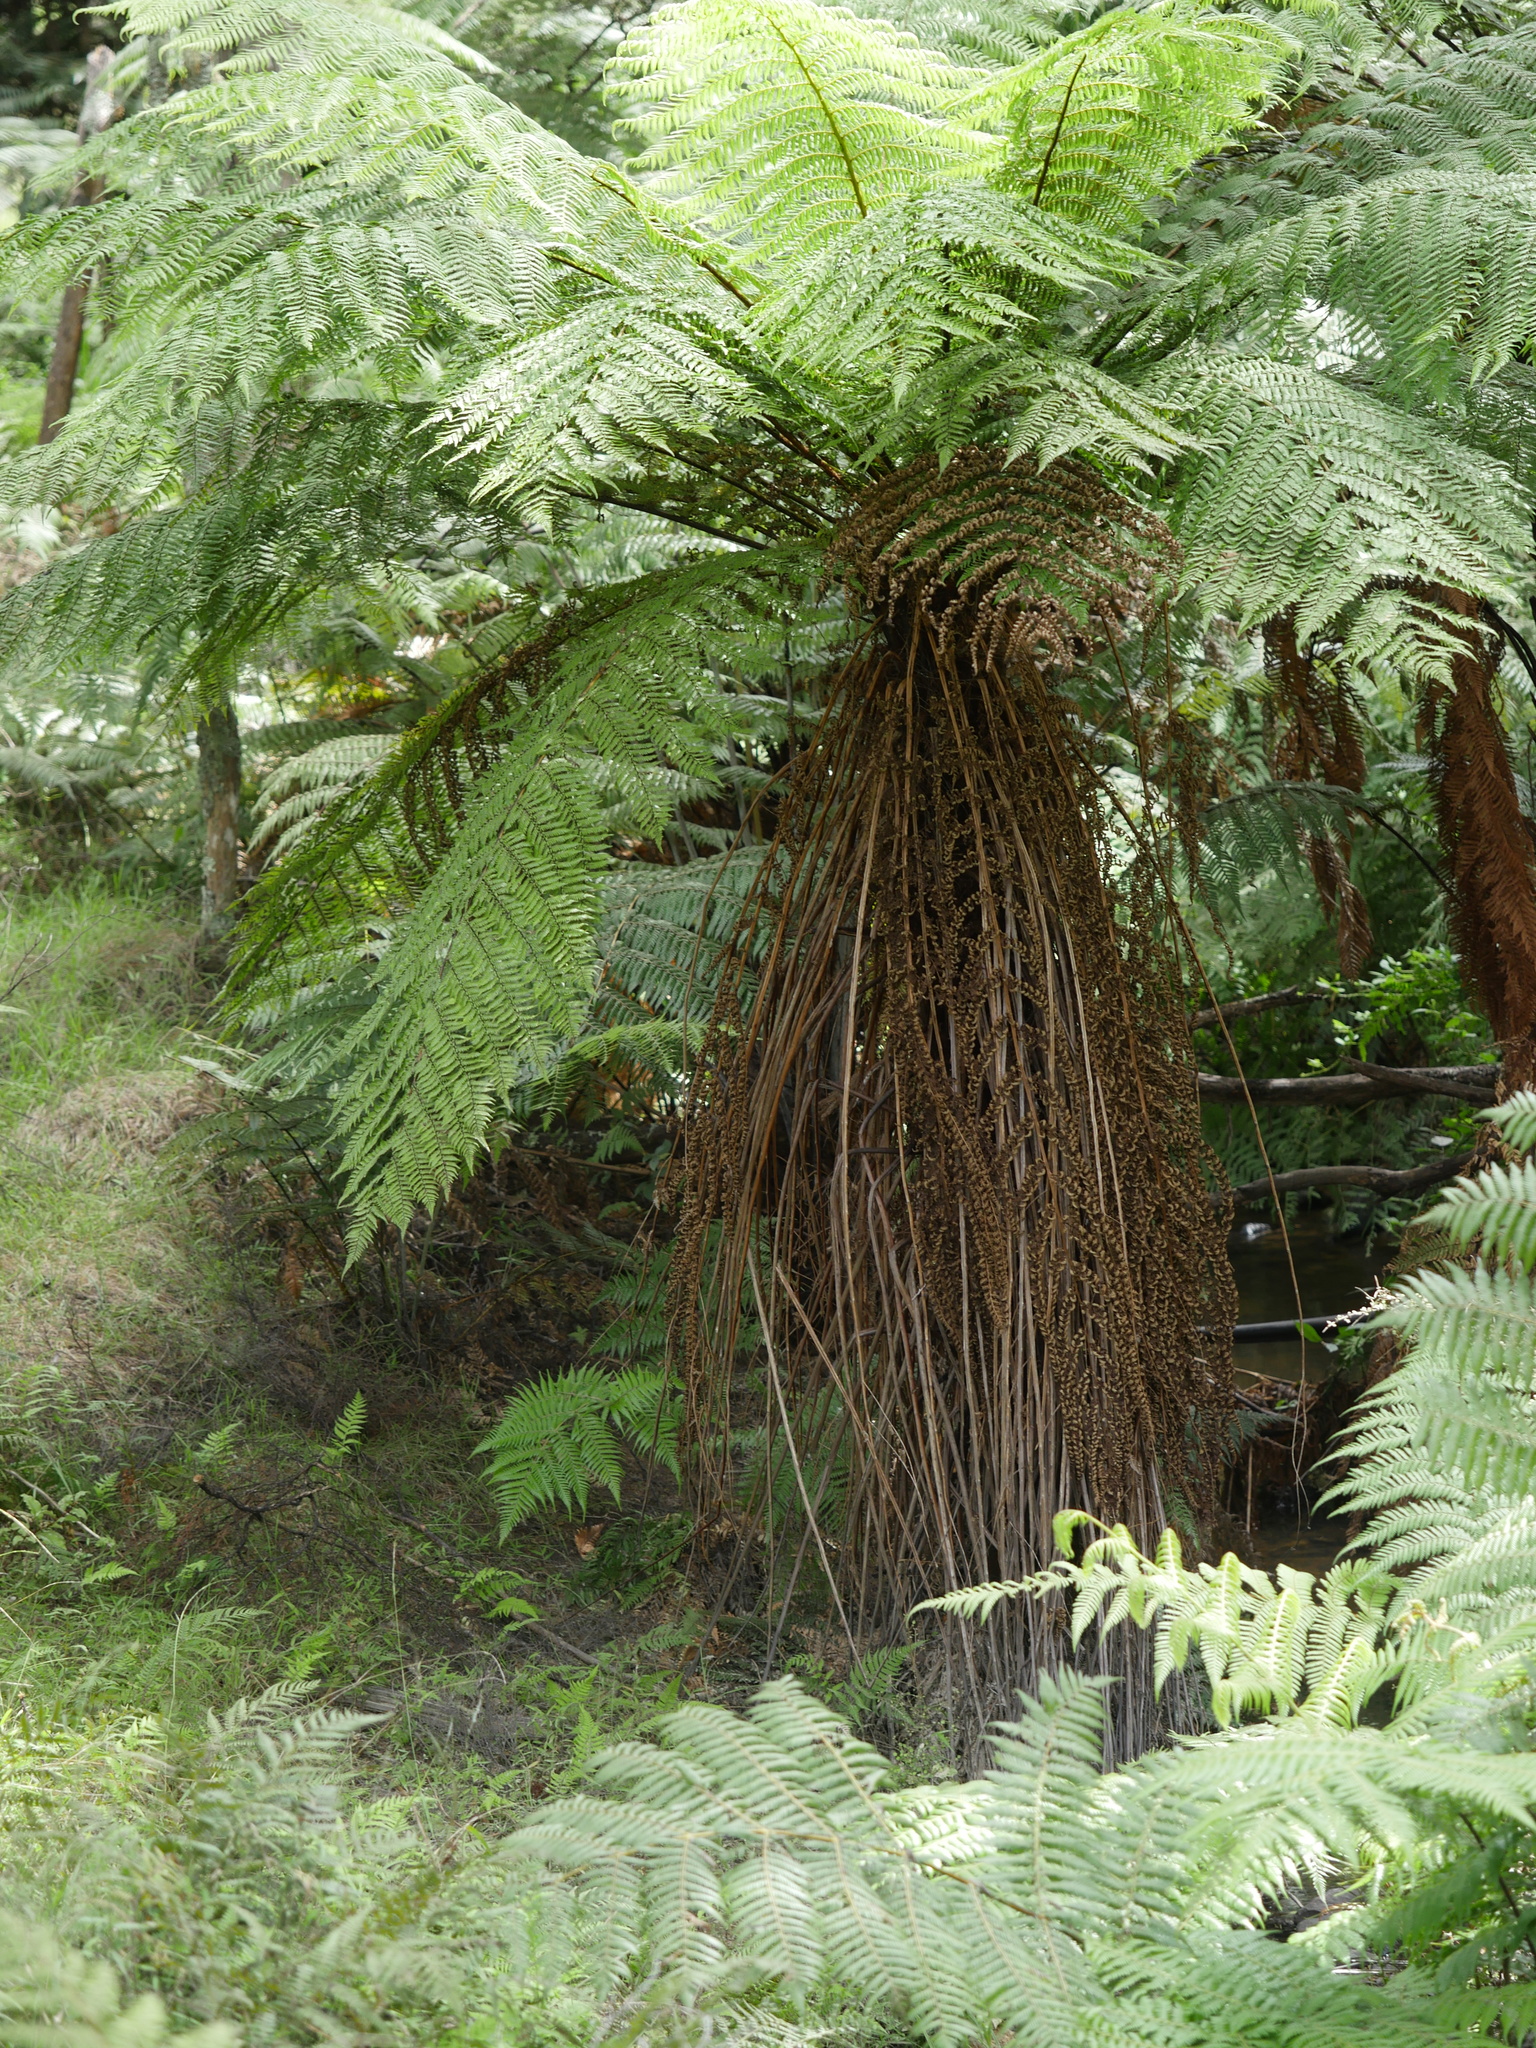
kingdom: Plantae
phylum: Tracheophyta
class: Polypodiopsida
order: Cyatheales
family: Cyatheaceae
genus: Alsophila
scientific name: Alsophila smithii
